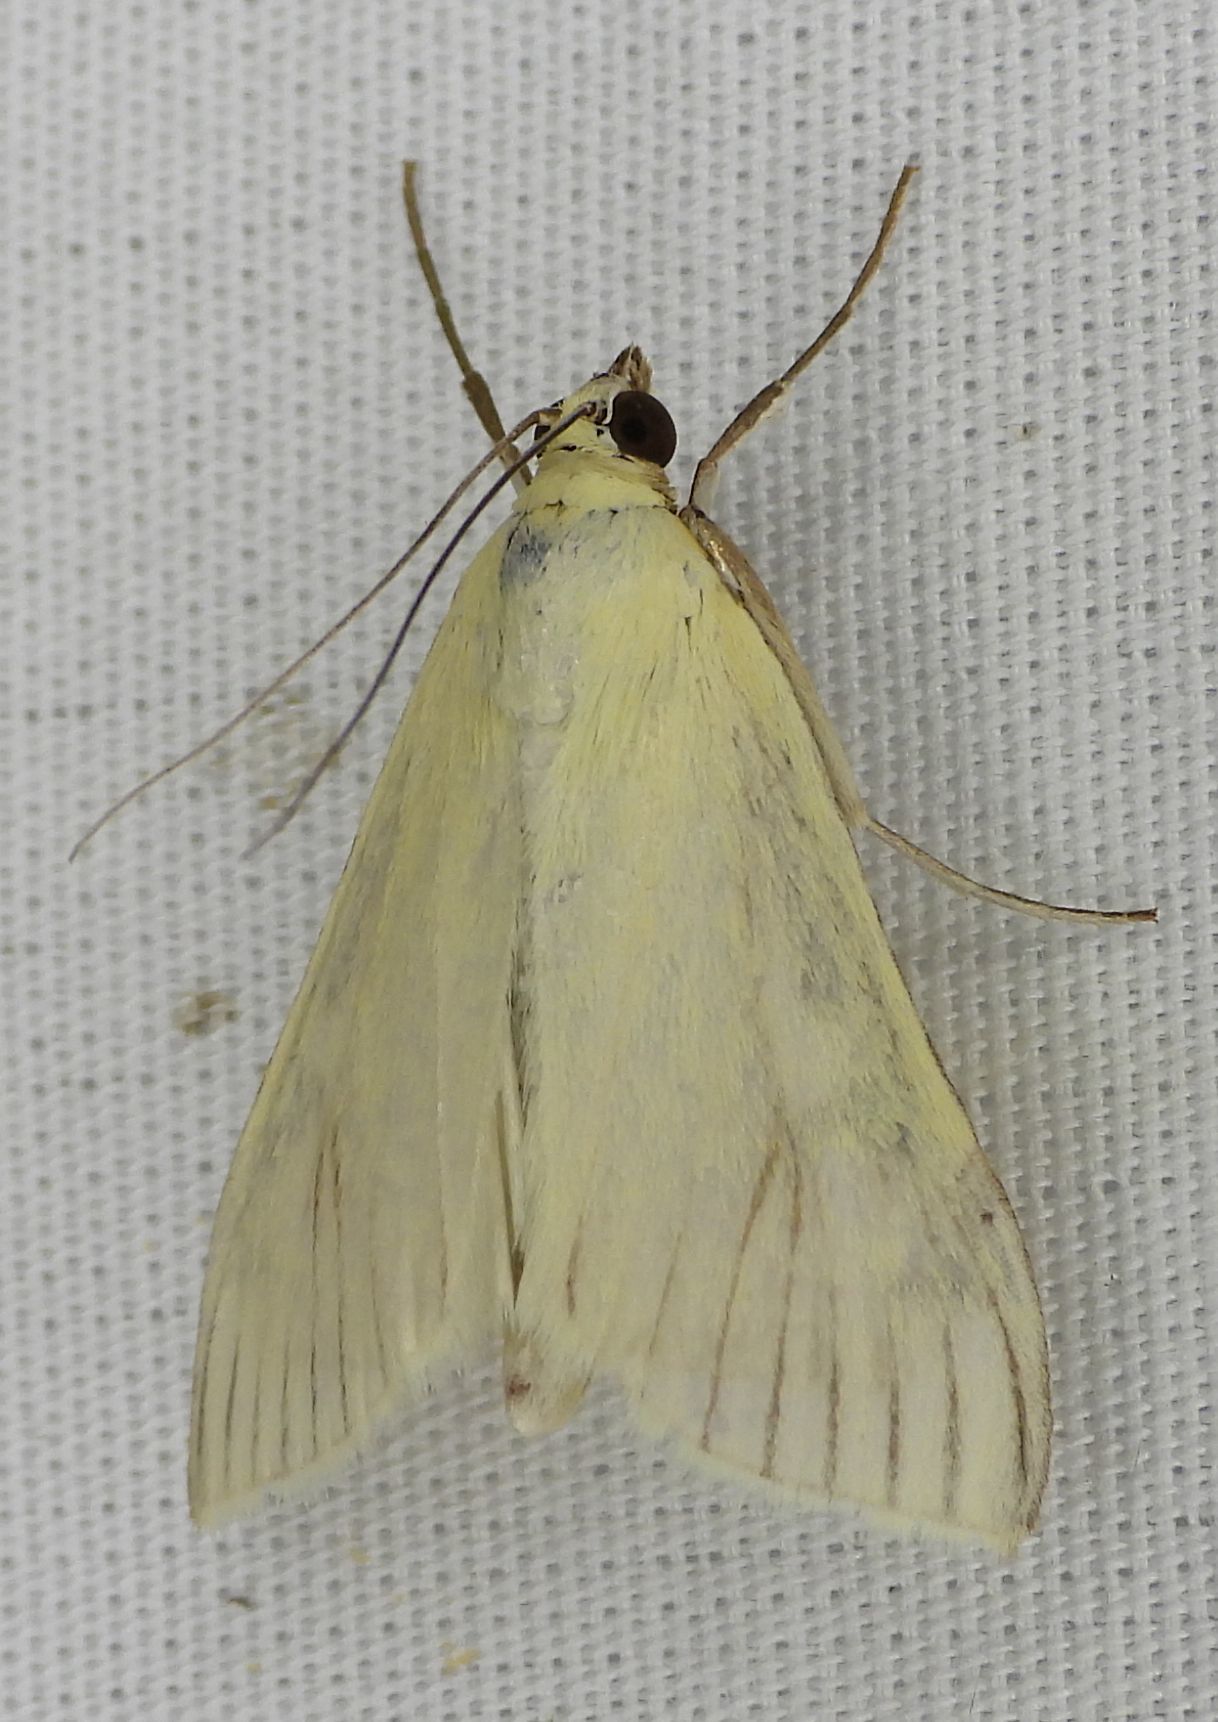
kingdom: Animalia
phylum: Arthropoda
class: Insecta
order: Lepidoptera
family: Crambidae
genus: Sitochroa
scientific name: Sitochroa palealis
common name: Greenish-yellow sitochroa moth
